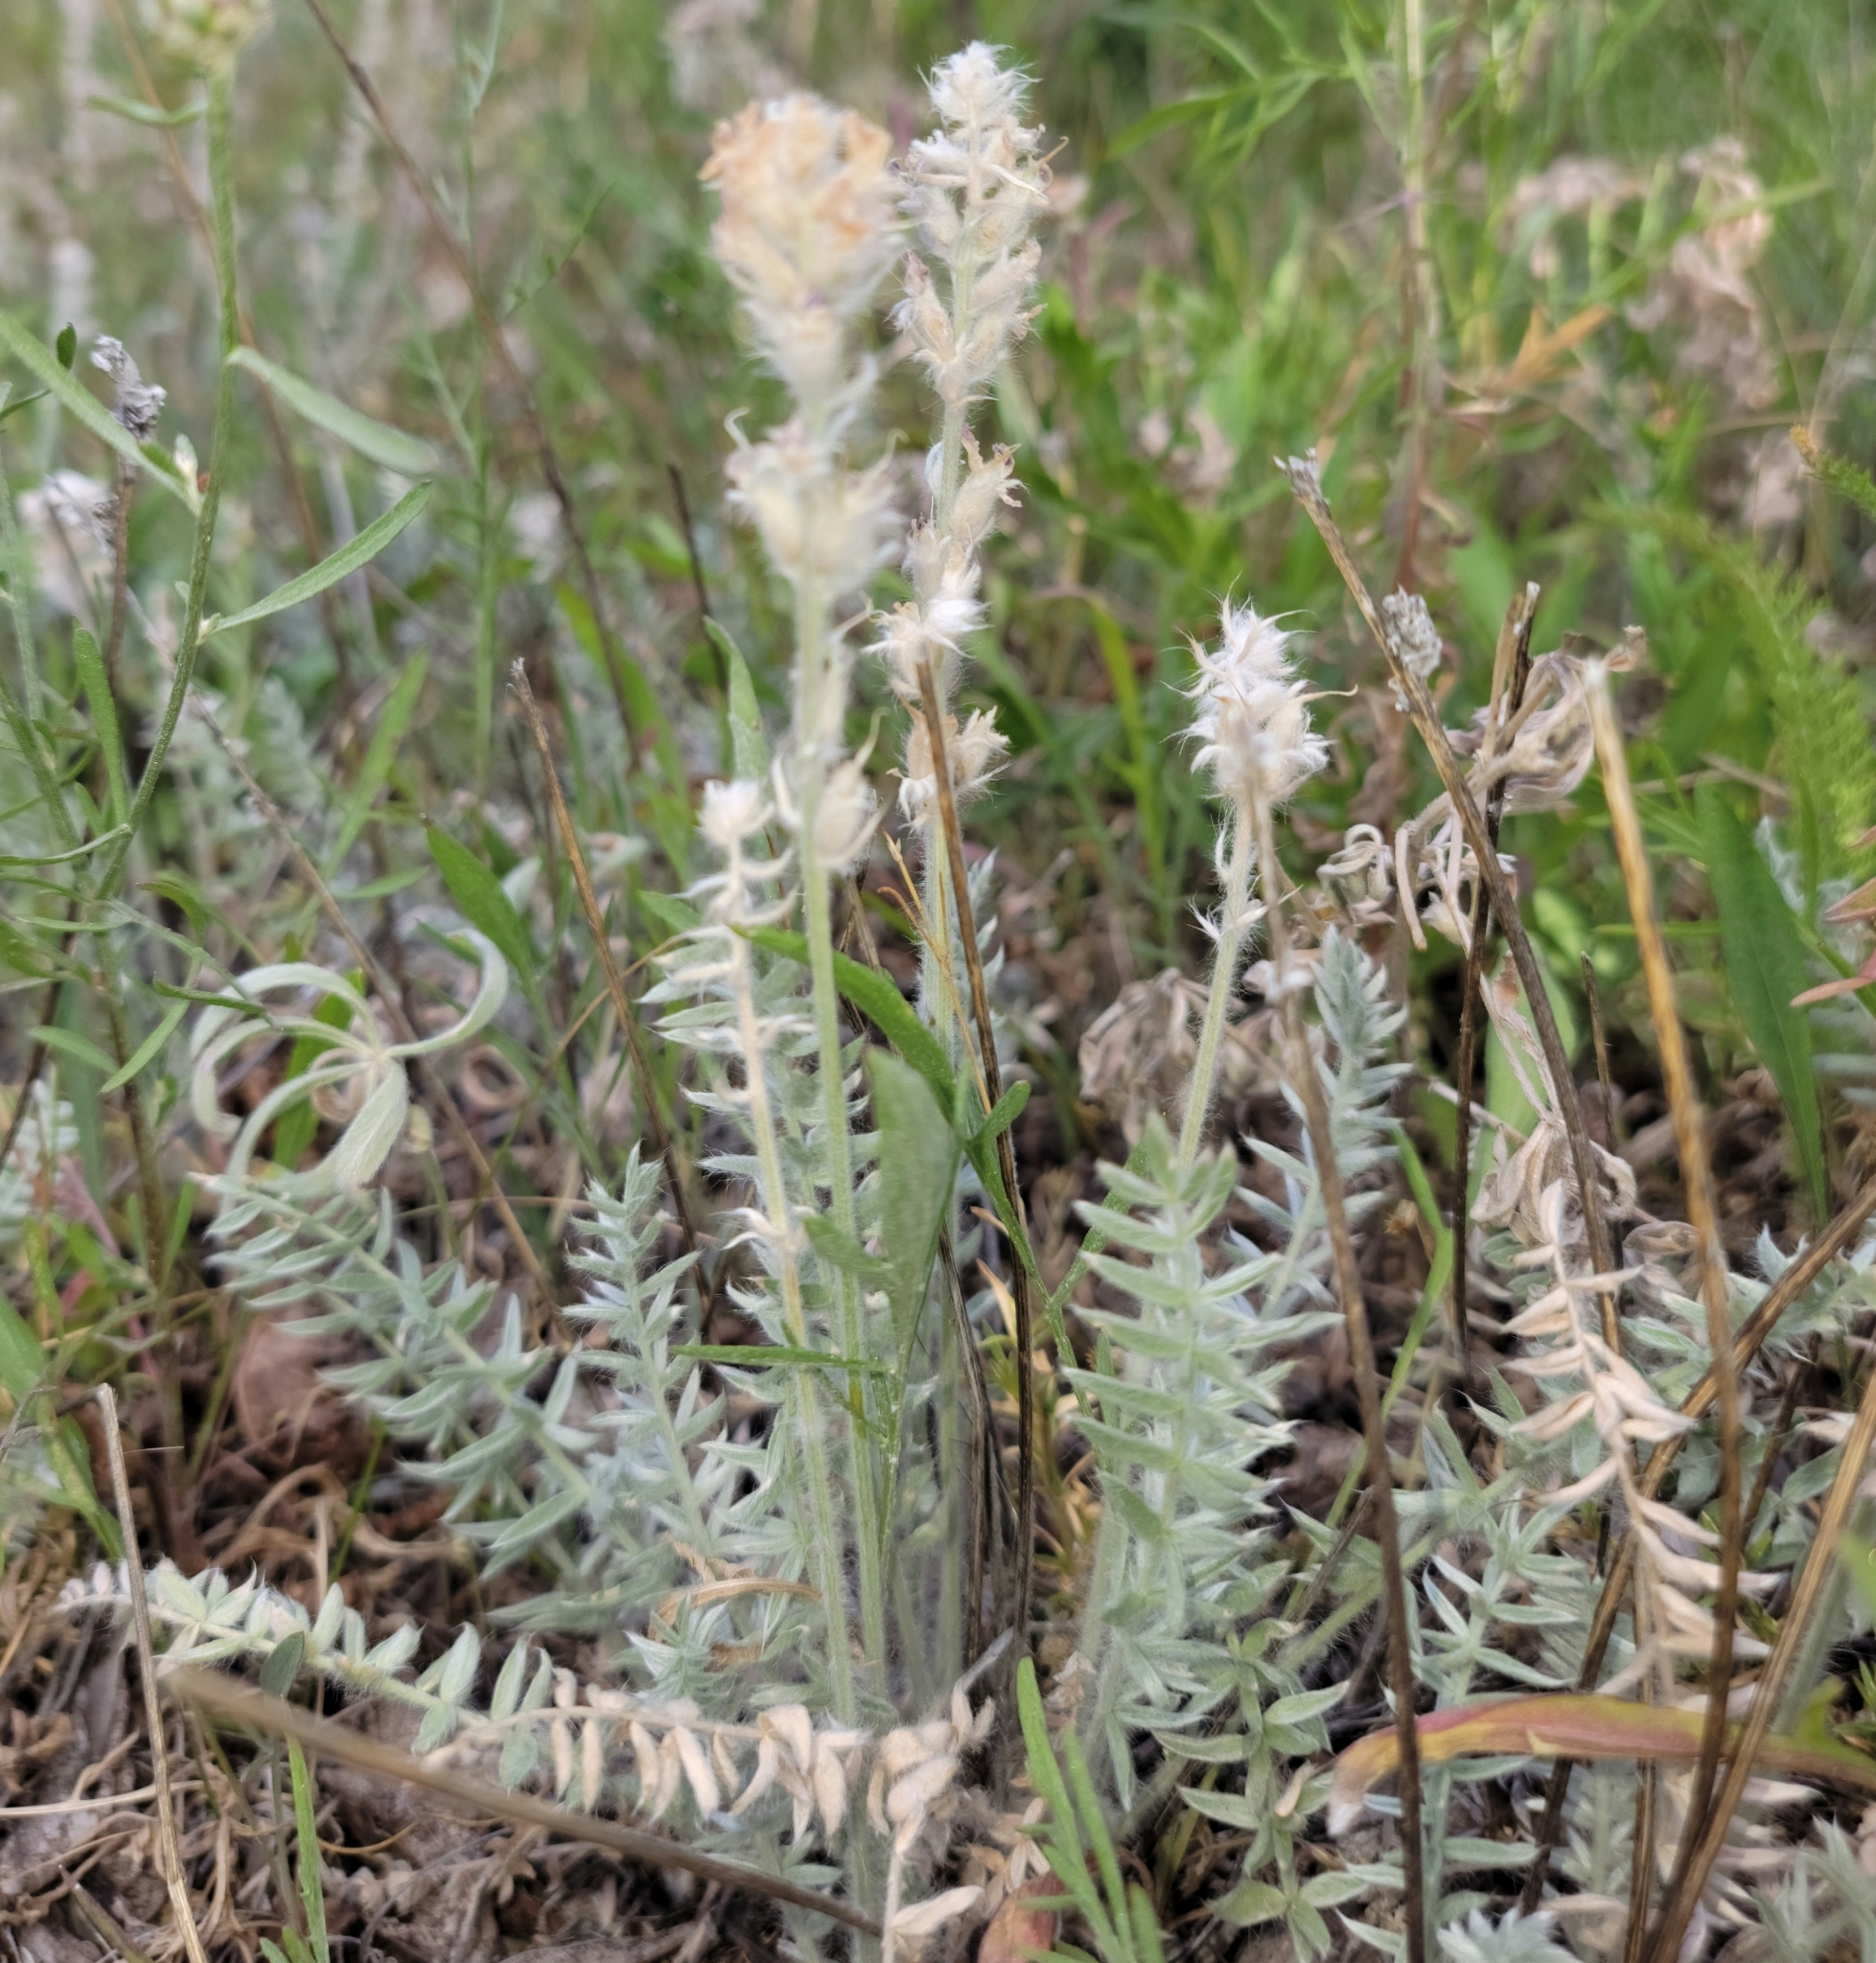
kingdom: Plantae
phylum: Tracheophyta
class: Magnoliopsida
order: Fabales
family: Fabaceae
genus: Oxytropis
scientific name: Oxytropis splendens
